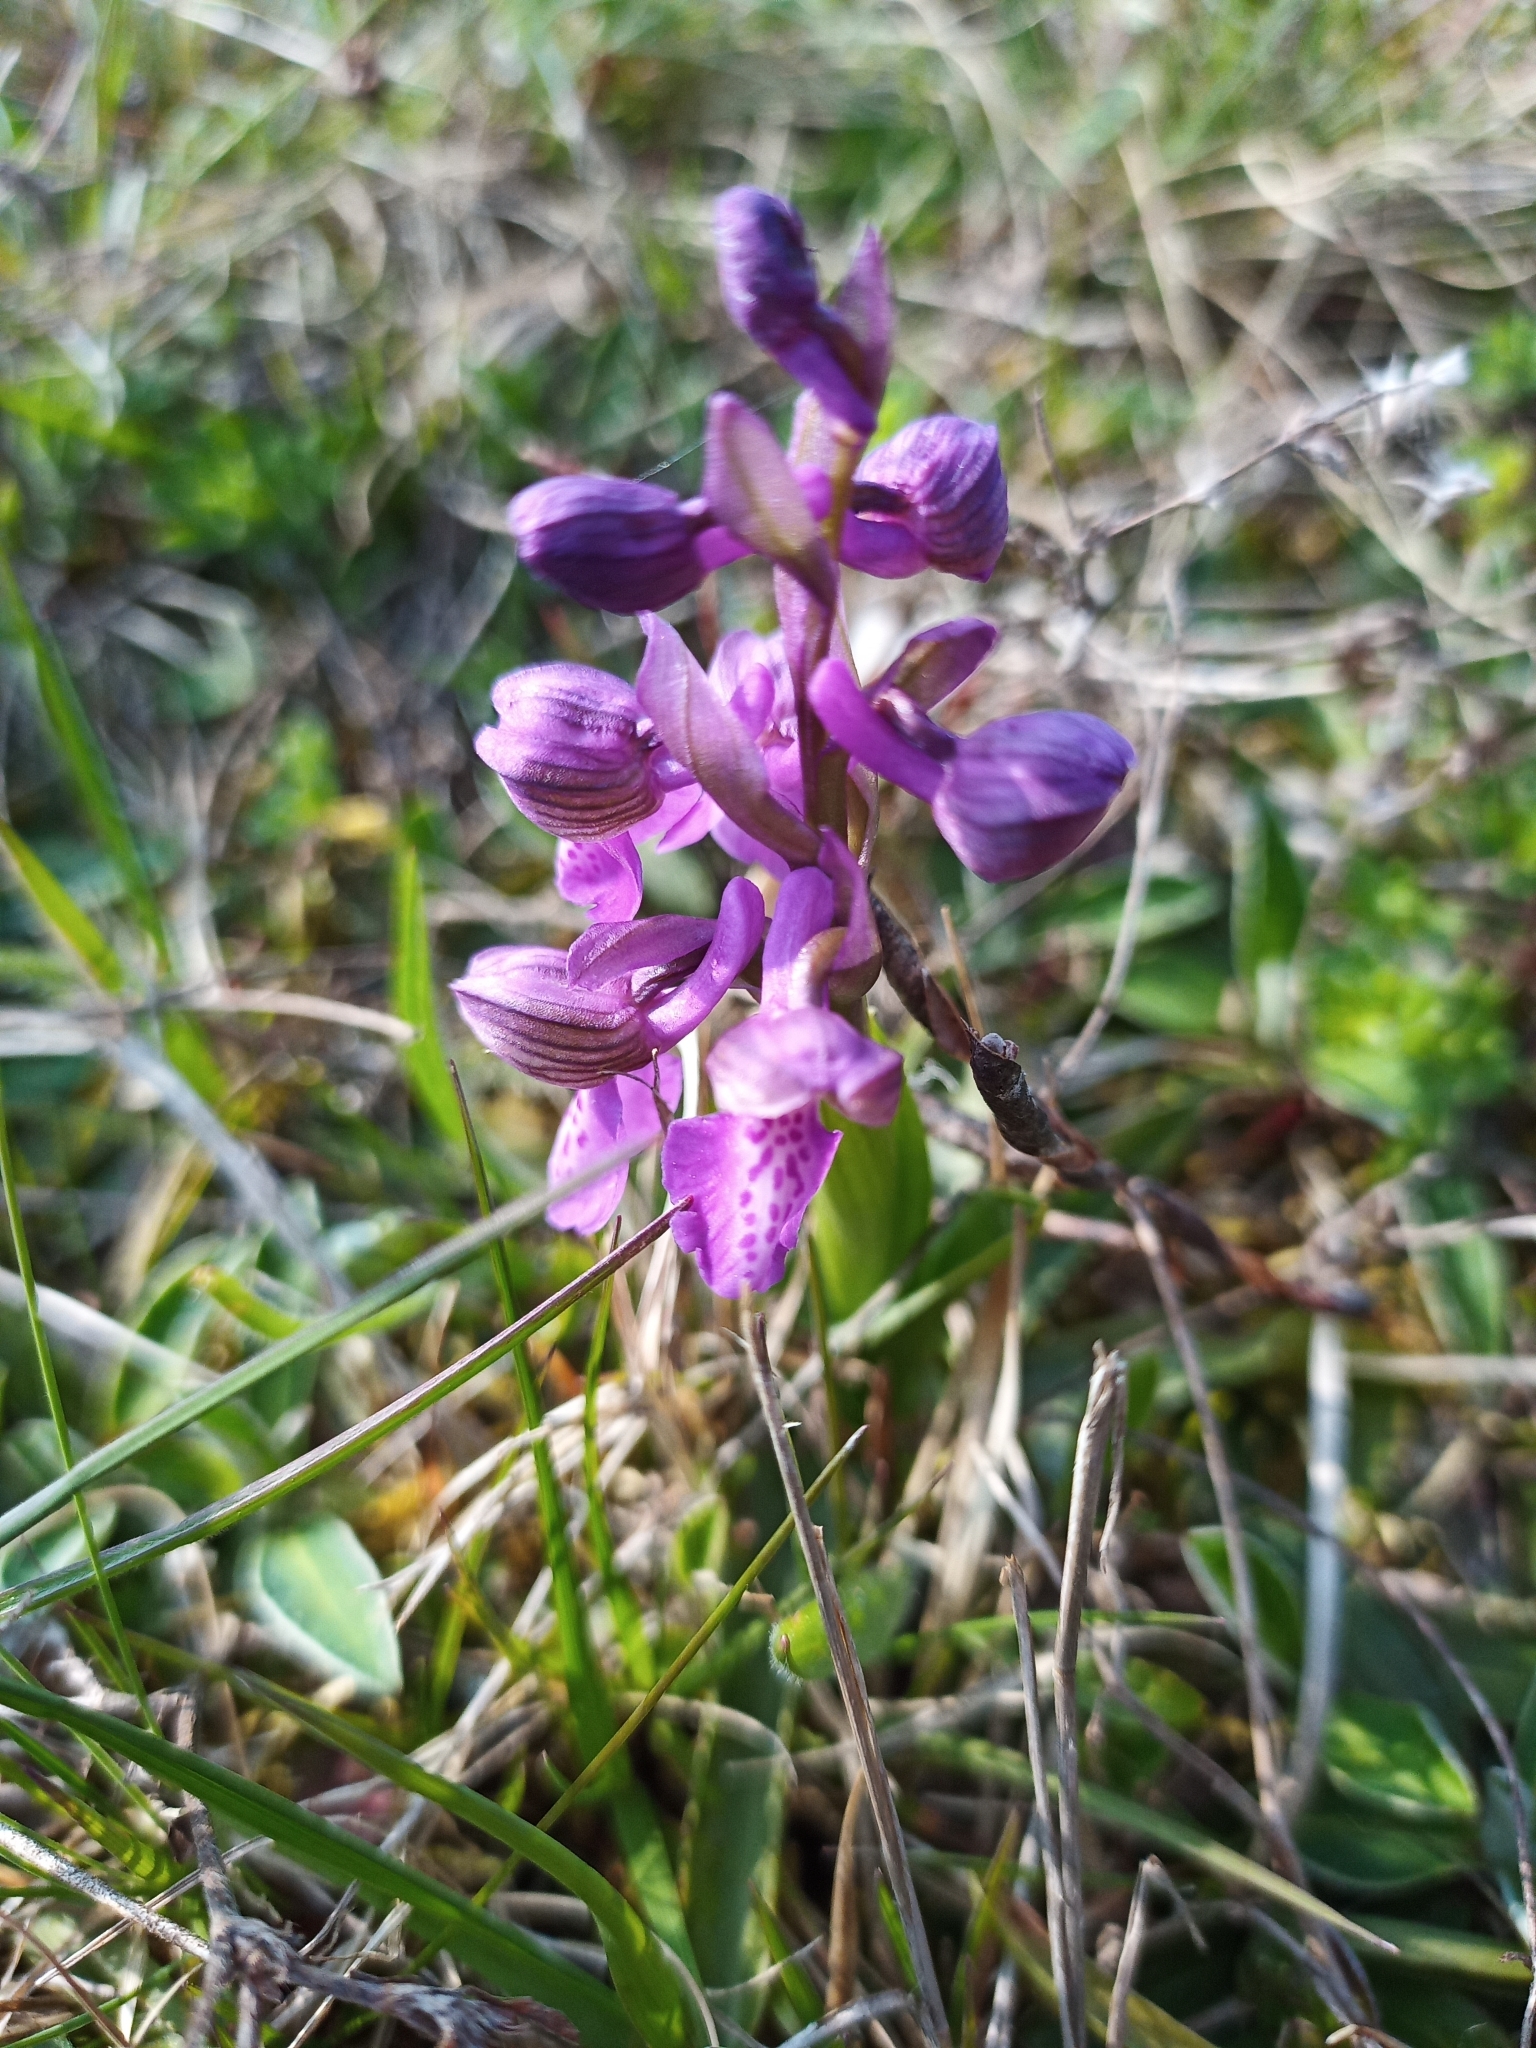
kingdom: Plantae
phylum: Tracheophyta
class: Liliopsida
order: Asparagales
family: Orchidaceae
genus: Anacamptis
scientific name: Anacamptis morio
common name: Green-winged orchid
